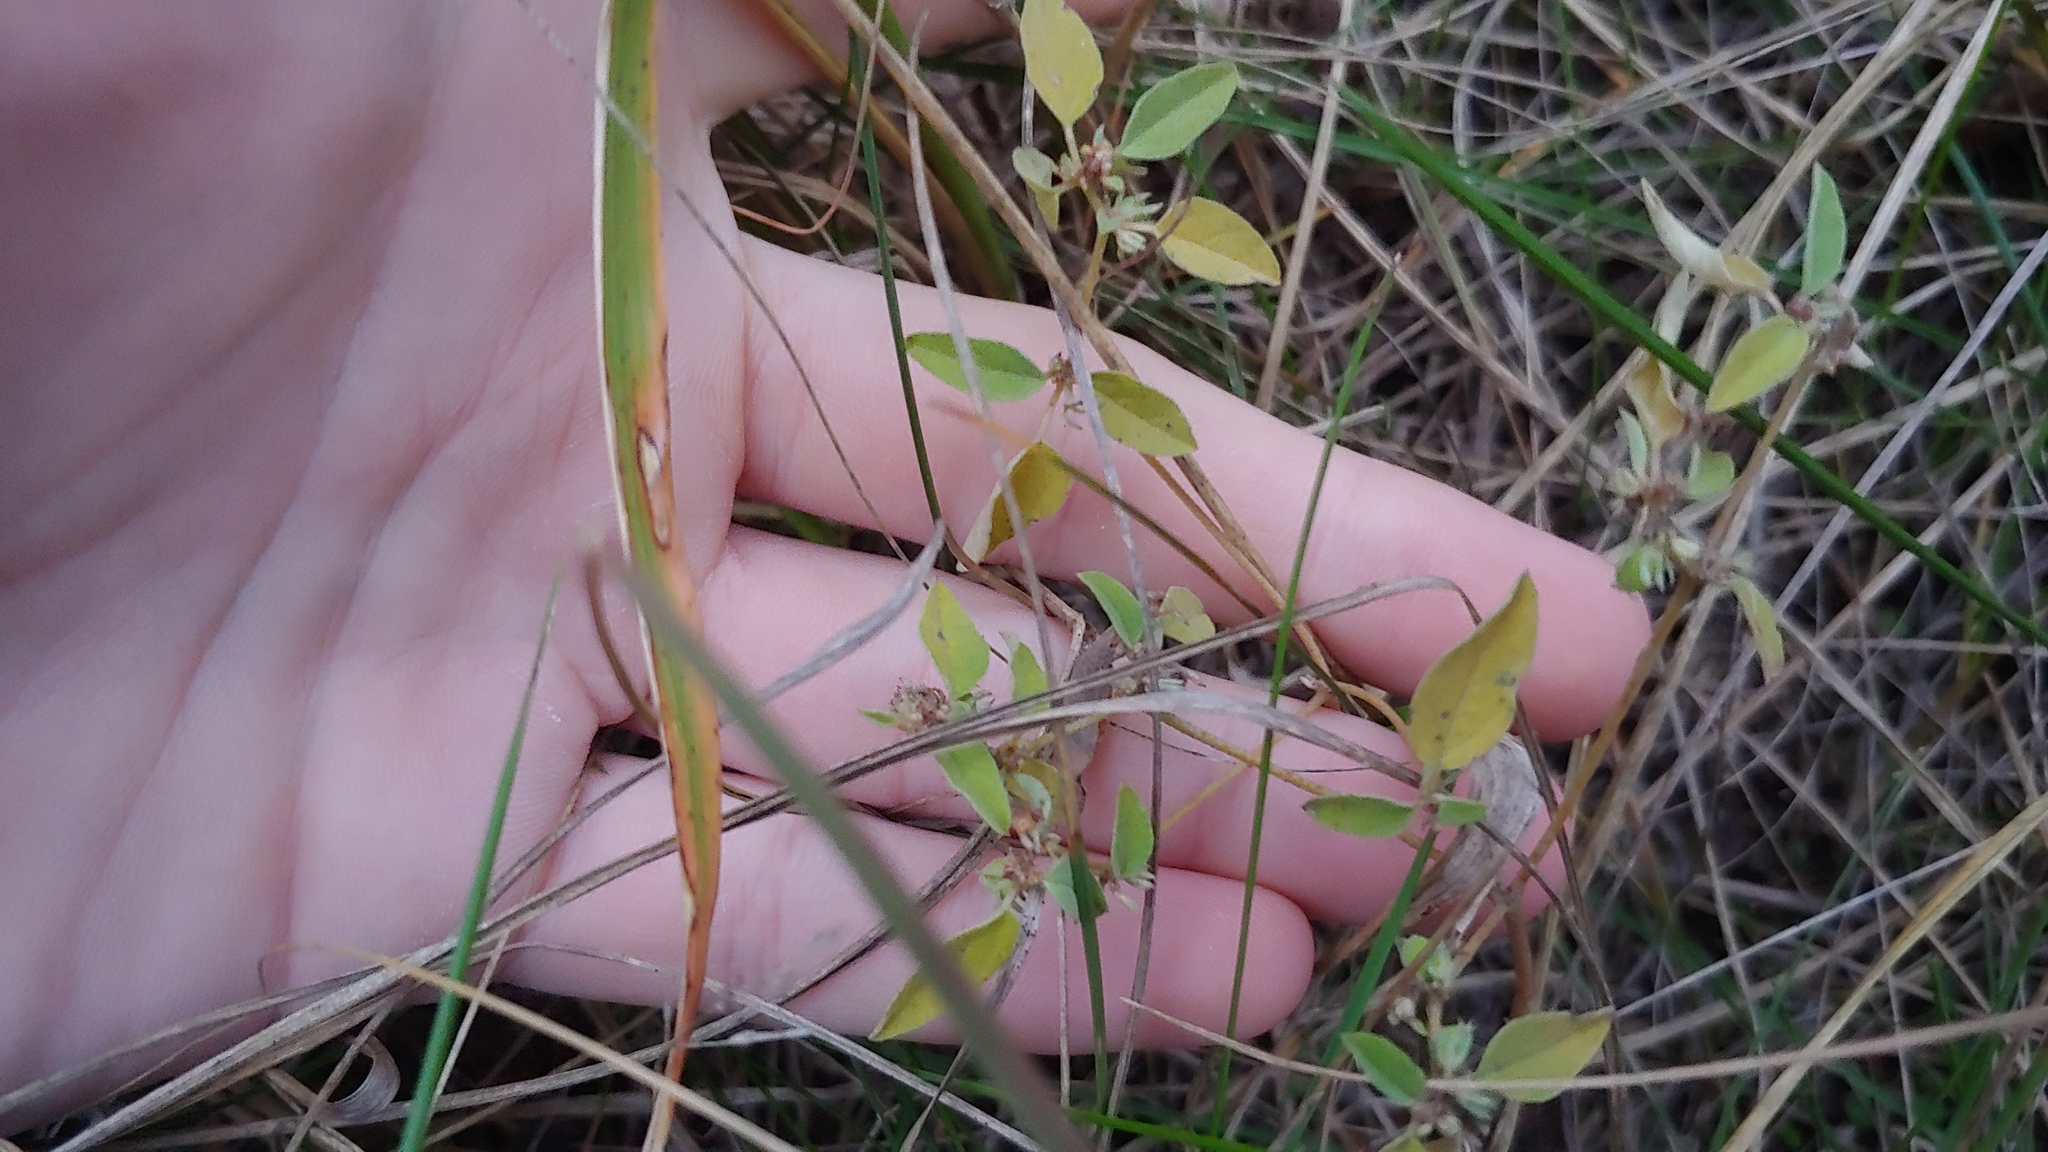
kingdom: Plantae
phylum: Tracheophyta
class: Magnoliopsida
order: Malpighiales
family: Euphorbiaceae
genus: Croton
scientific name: Croton monanthogynus
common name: One-seed croton
